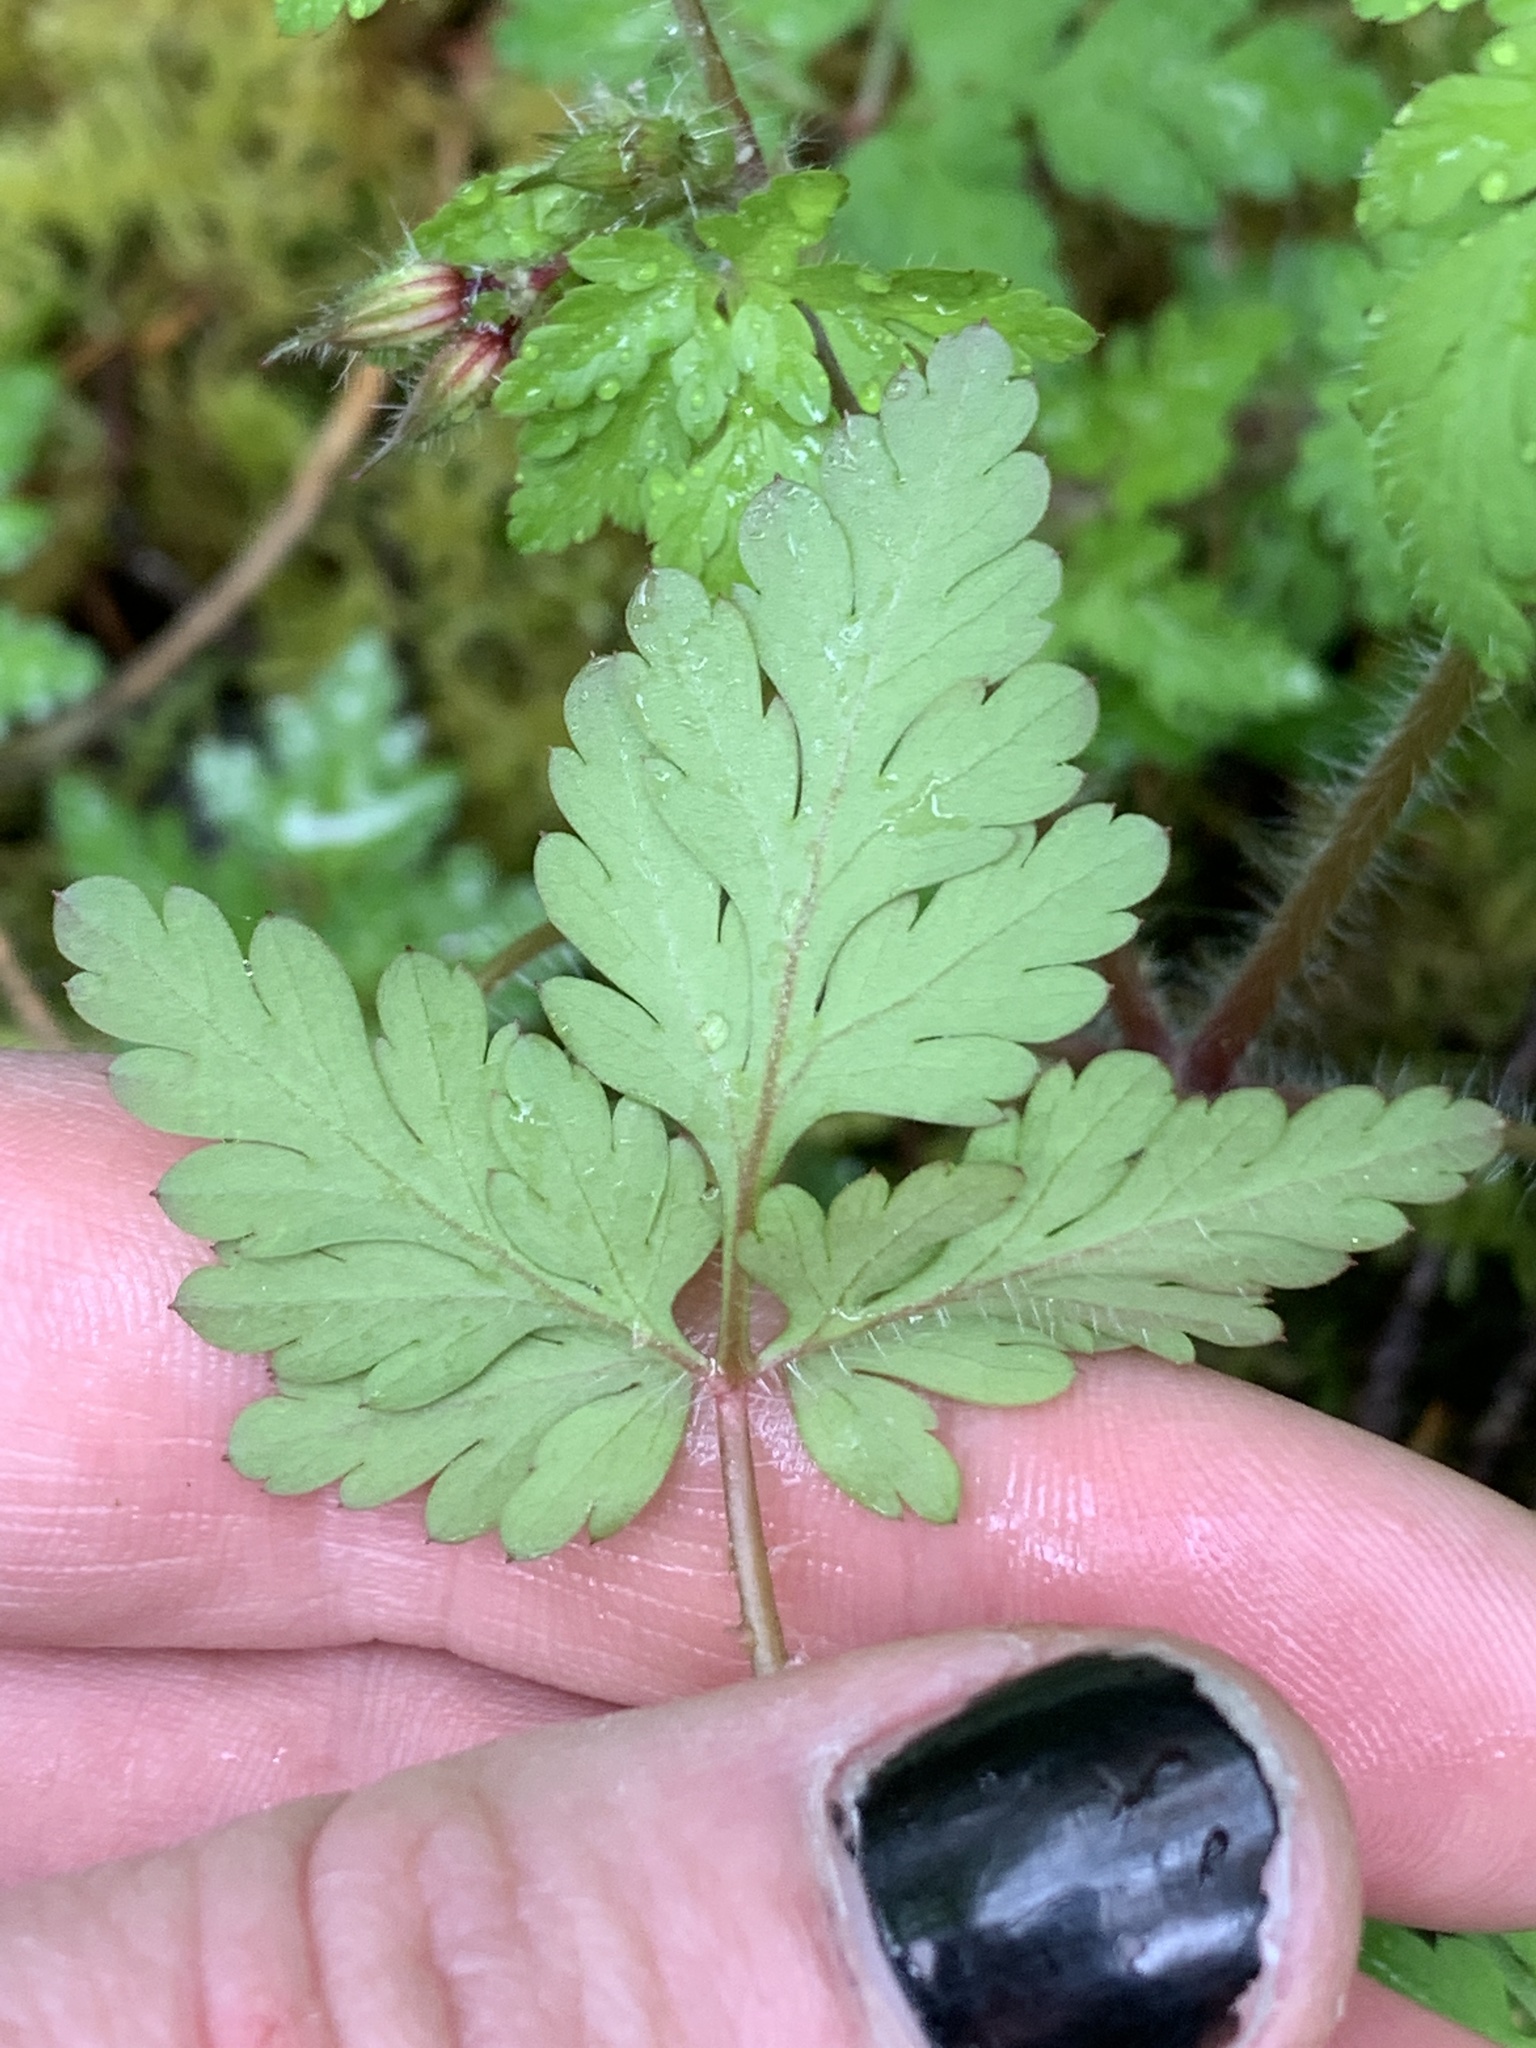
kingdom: Plantae
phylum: Tracheophyta
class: Magnoliopsida
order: Geraniales
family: Geraniaceae
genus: Geranium
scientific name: Geranium robertianum
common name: Herb-robert
